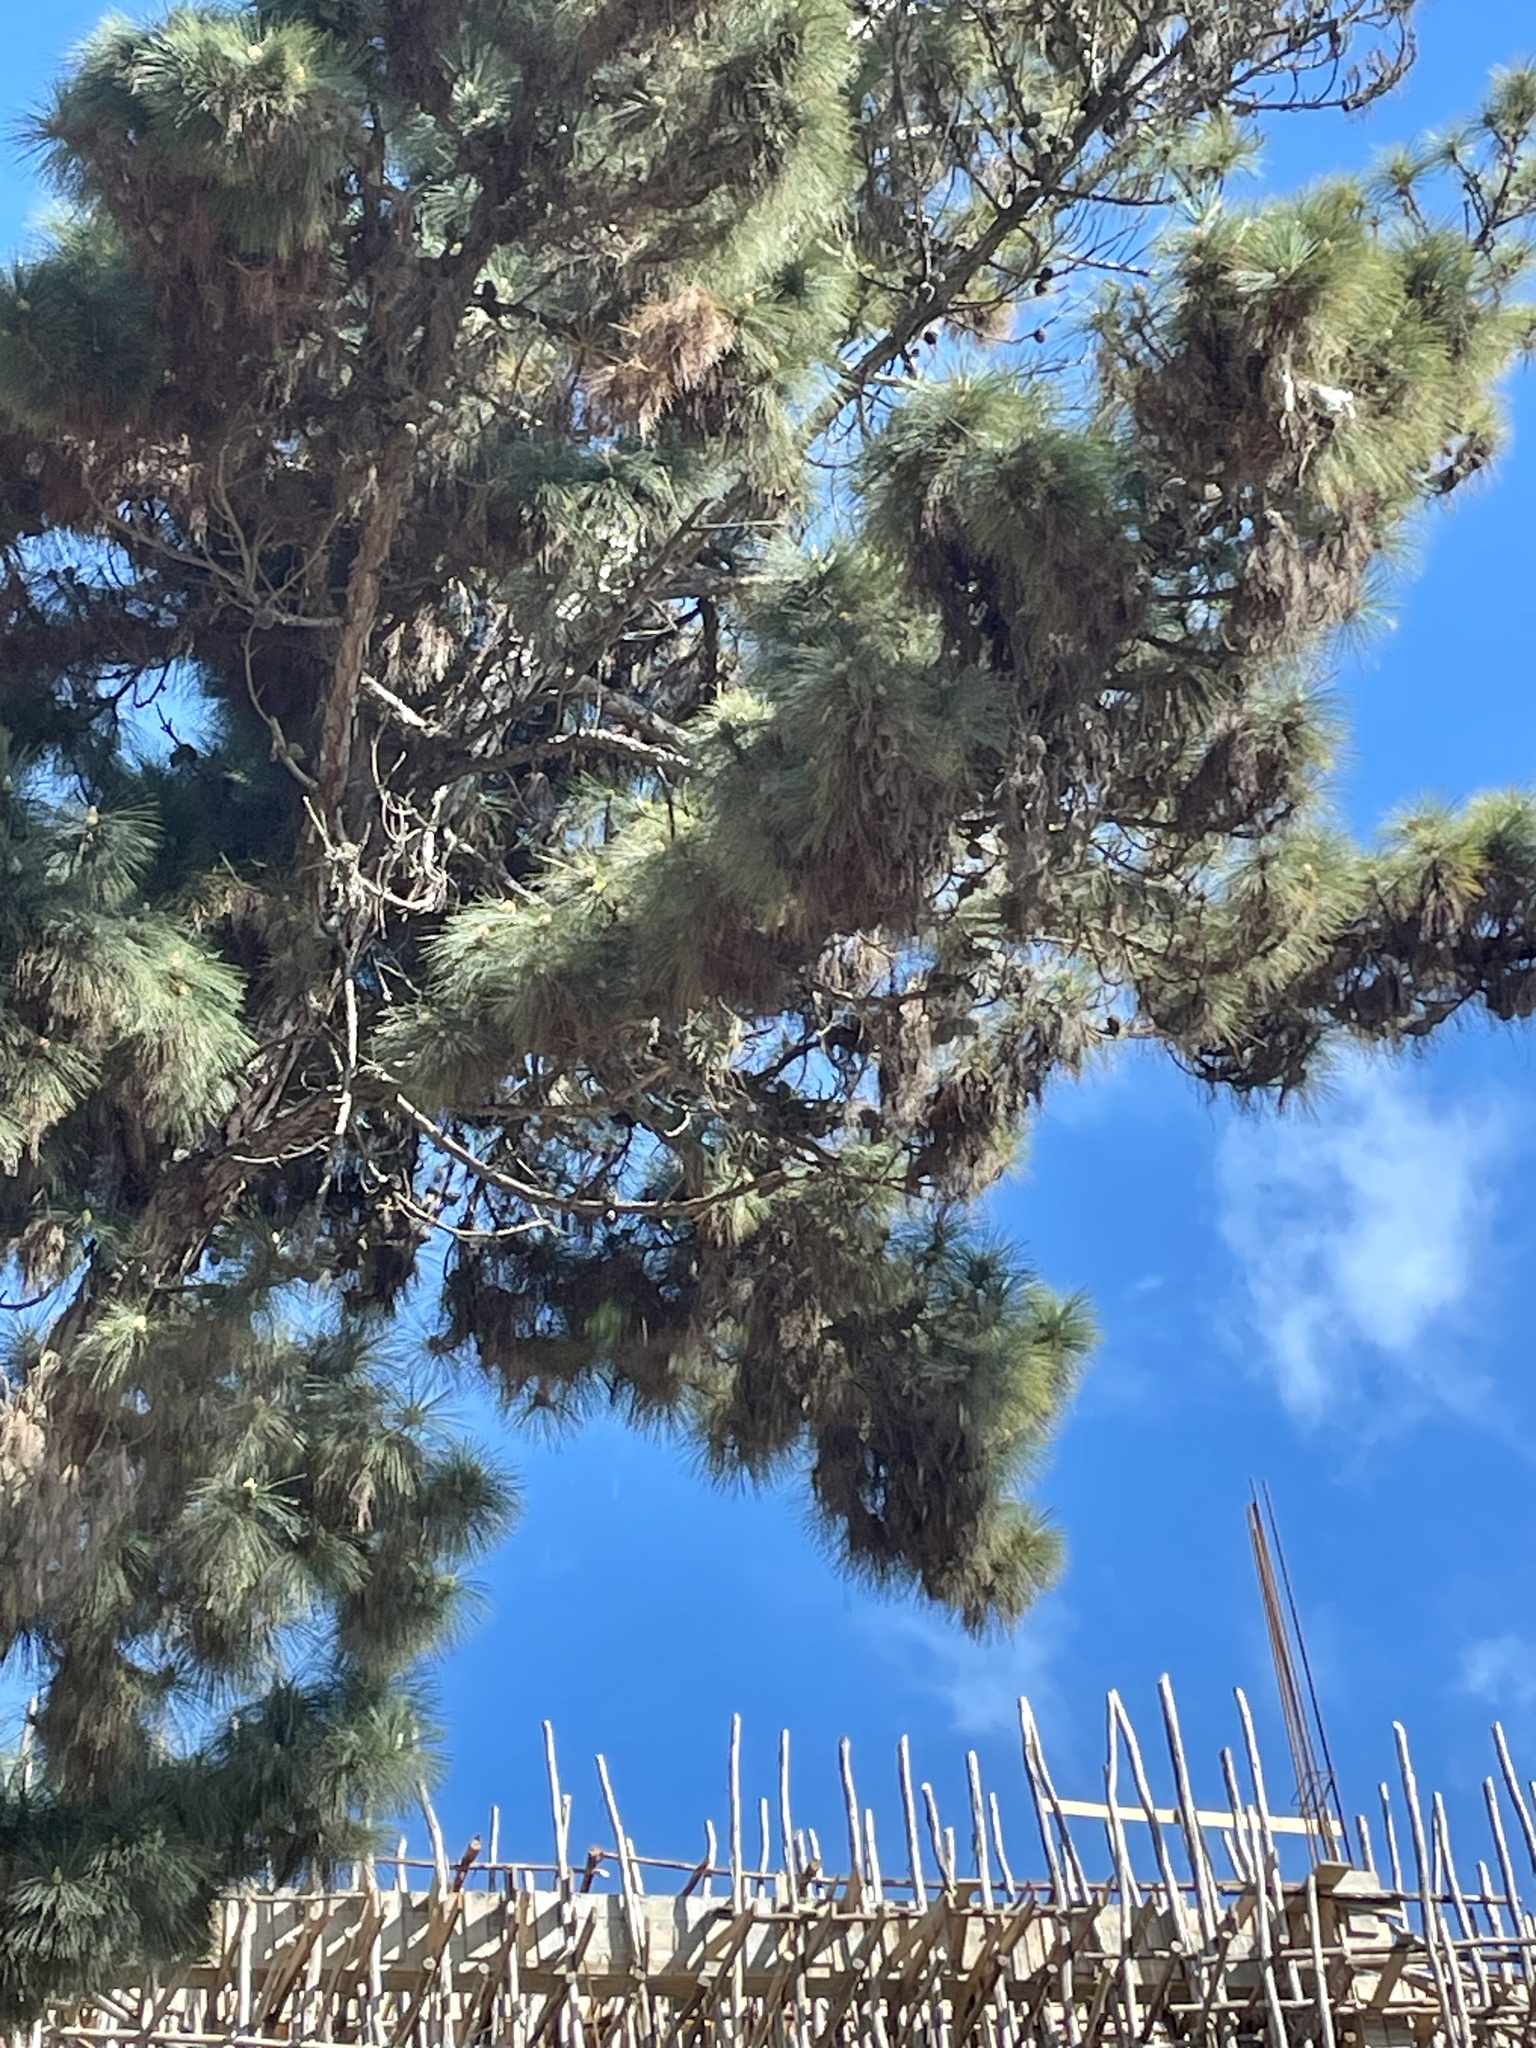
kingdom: Plantae
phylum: Tracheophyta
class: Pinopsida
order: Pinales
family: Pinaceae
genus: Pinus
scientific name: Pinus kesiya
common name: Benguet pine
